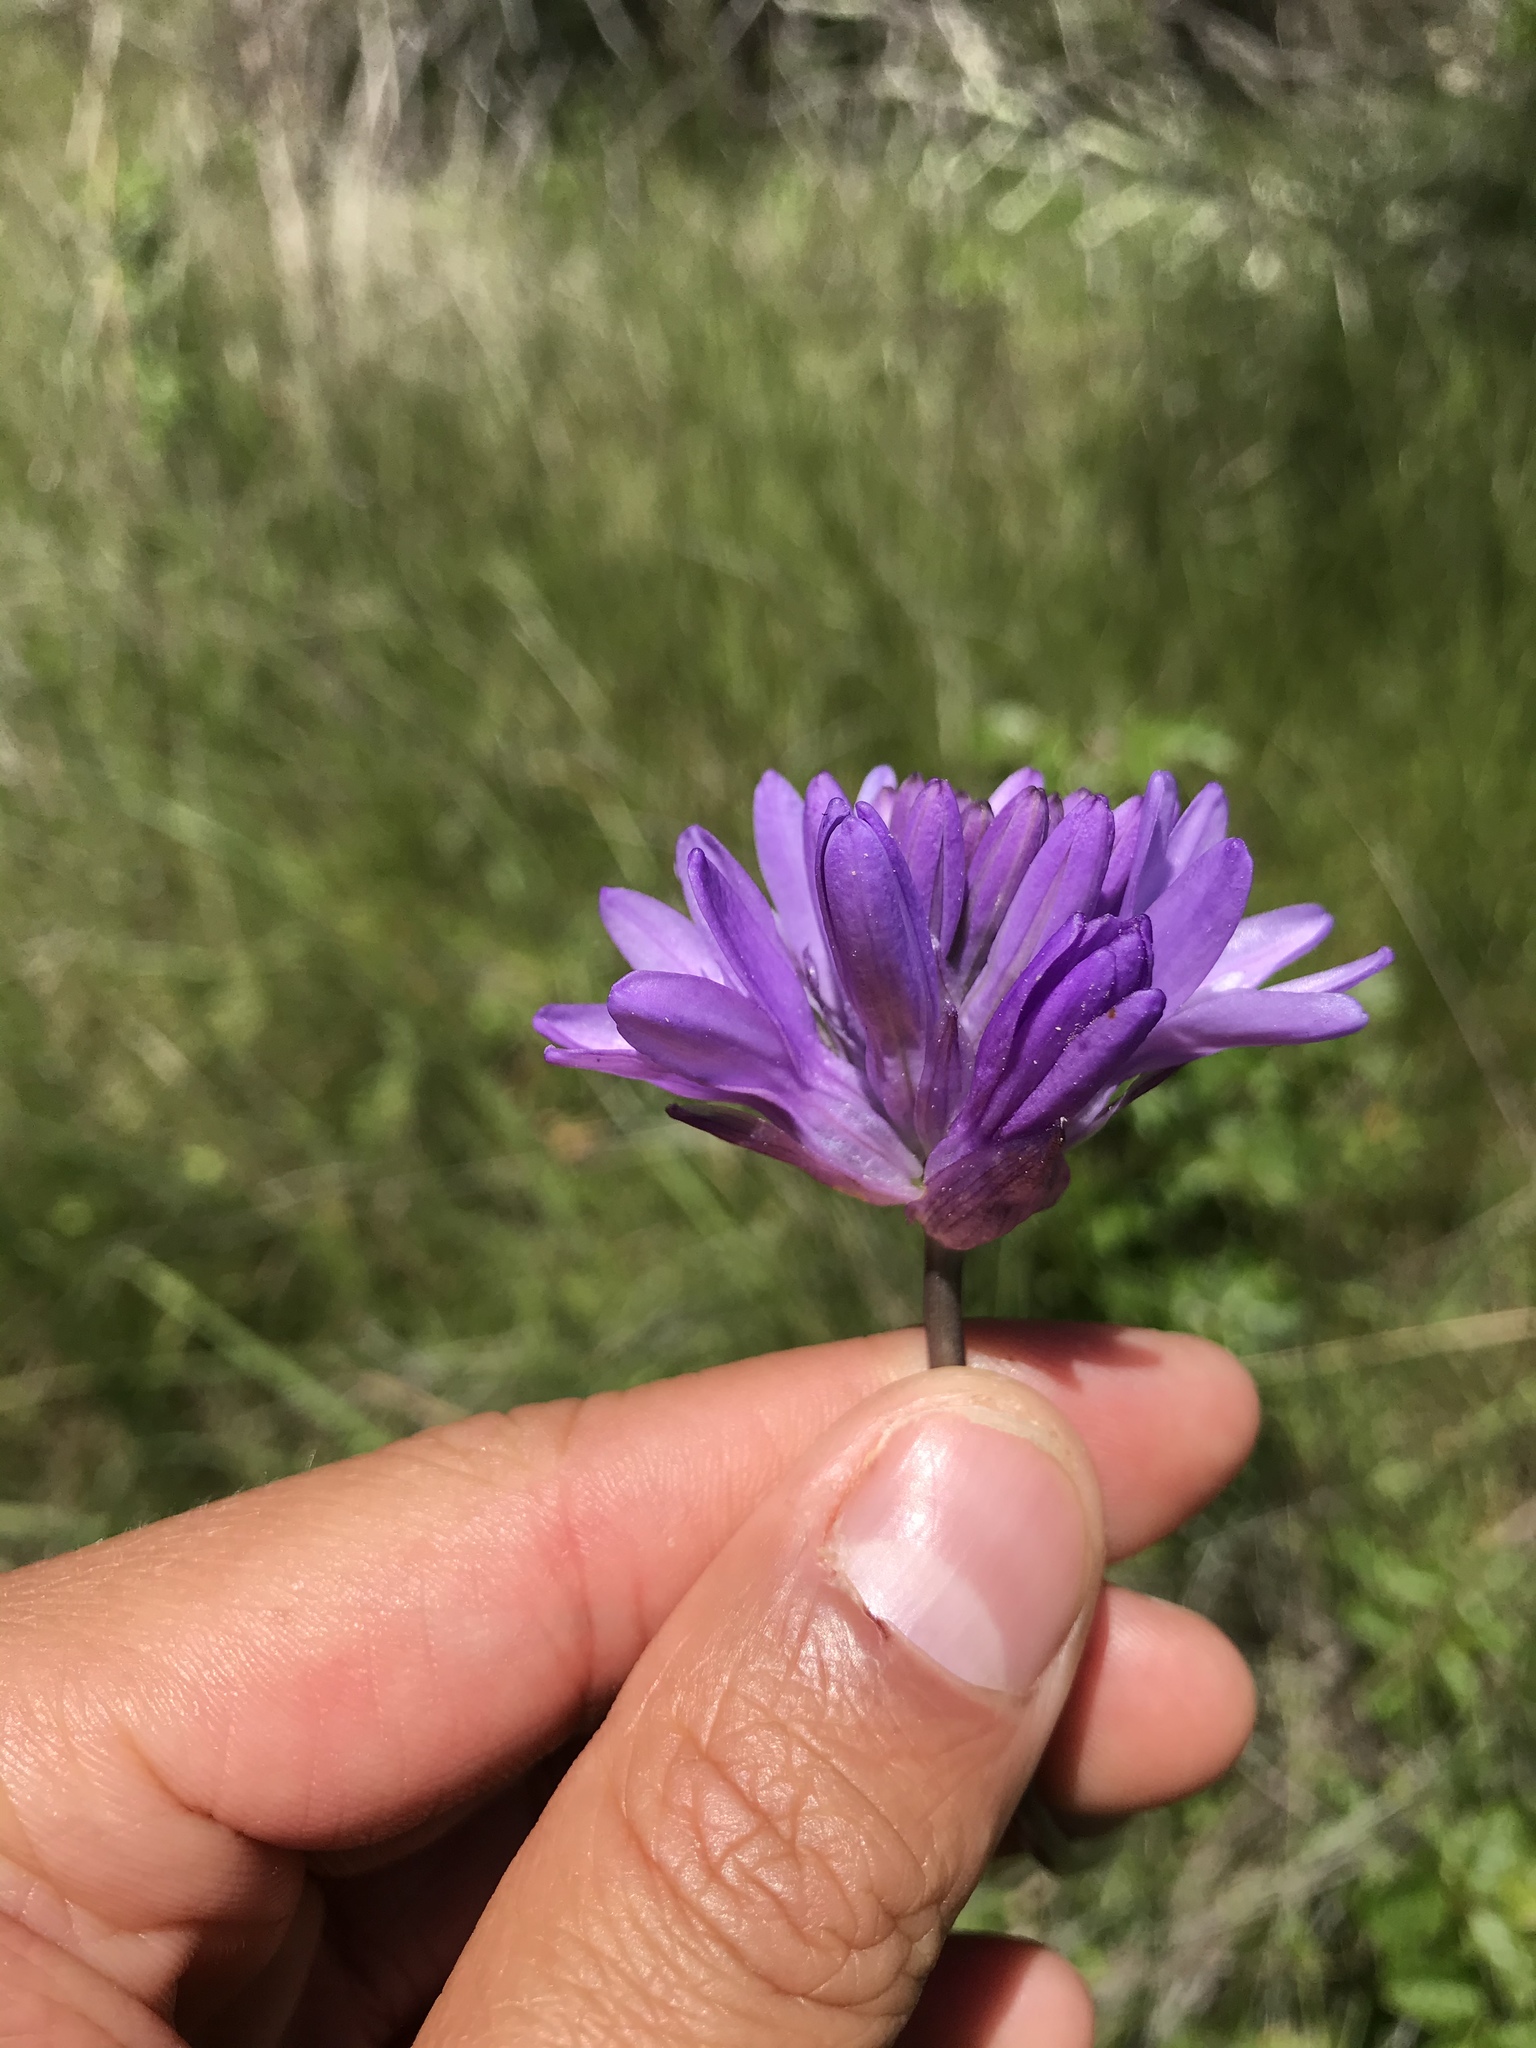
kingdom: Plantae
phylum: Tracheophyta
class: Liliopsida
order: Asparagales
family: Asparagaceae
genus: Dichelostemma
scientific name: Dichelostemma congestum
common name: Fork-tooth ookow
